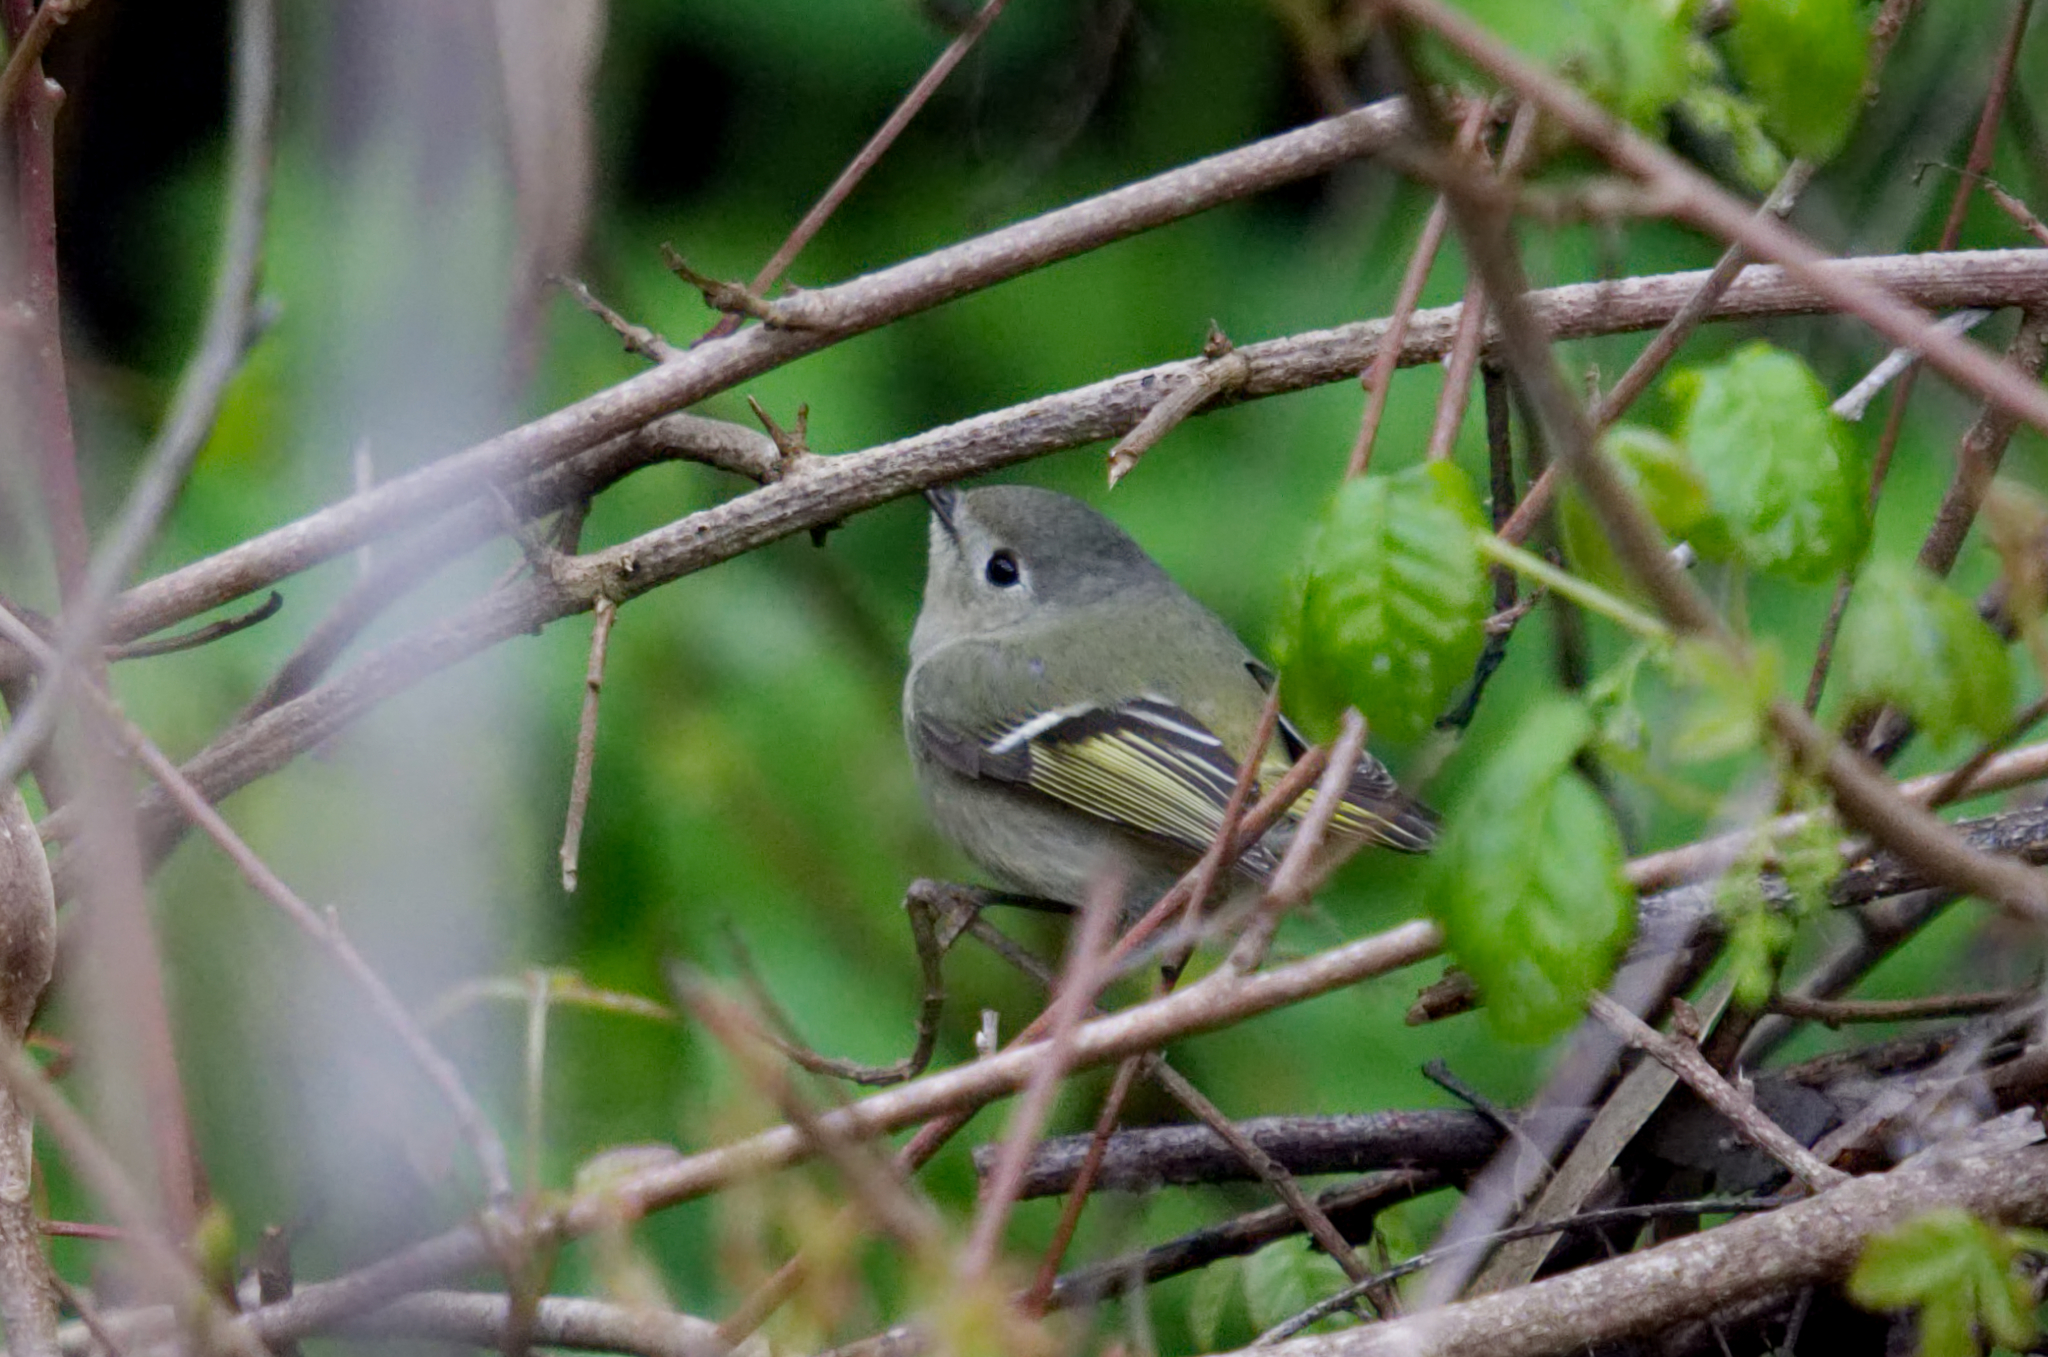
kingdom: Animalia
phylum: Chordata
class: Aves
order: Passeriformes
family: Regulidae
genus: Regulus
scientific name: Regulus calendula
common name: Ruby-crowned kinglet
